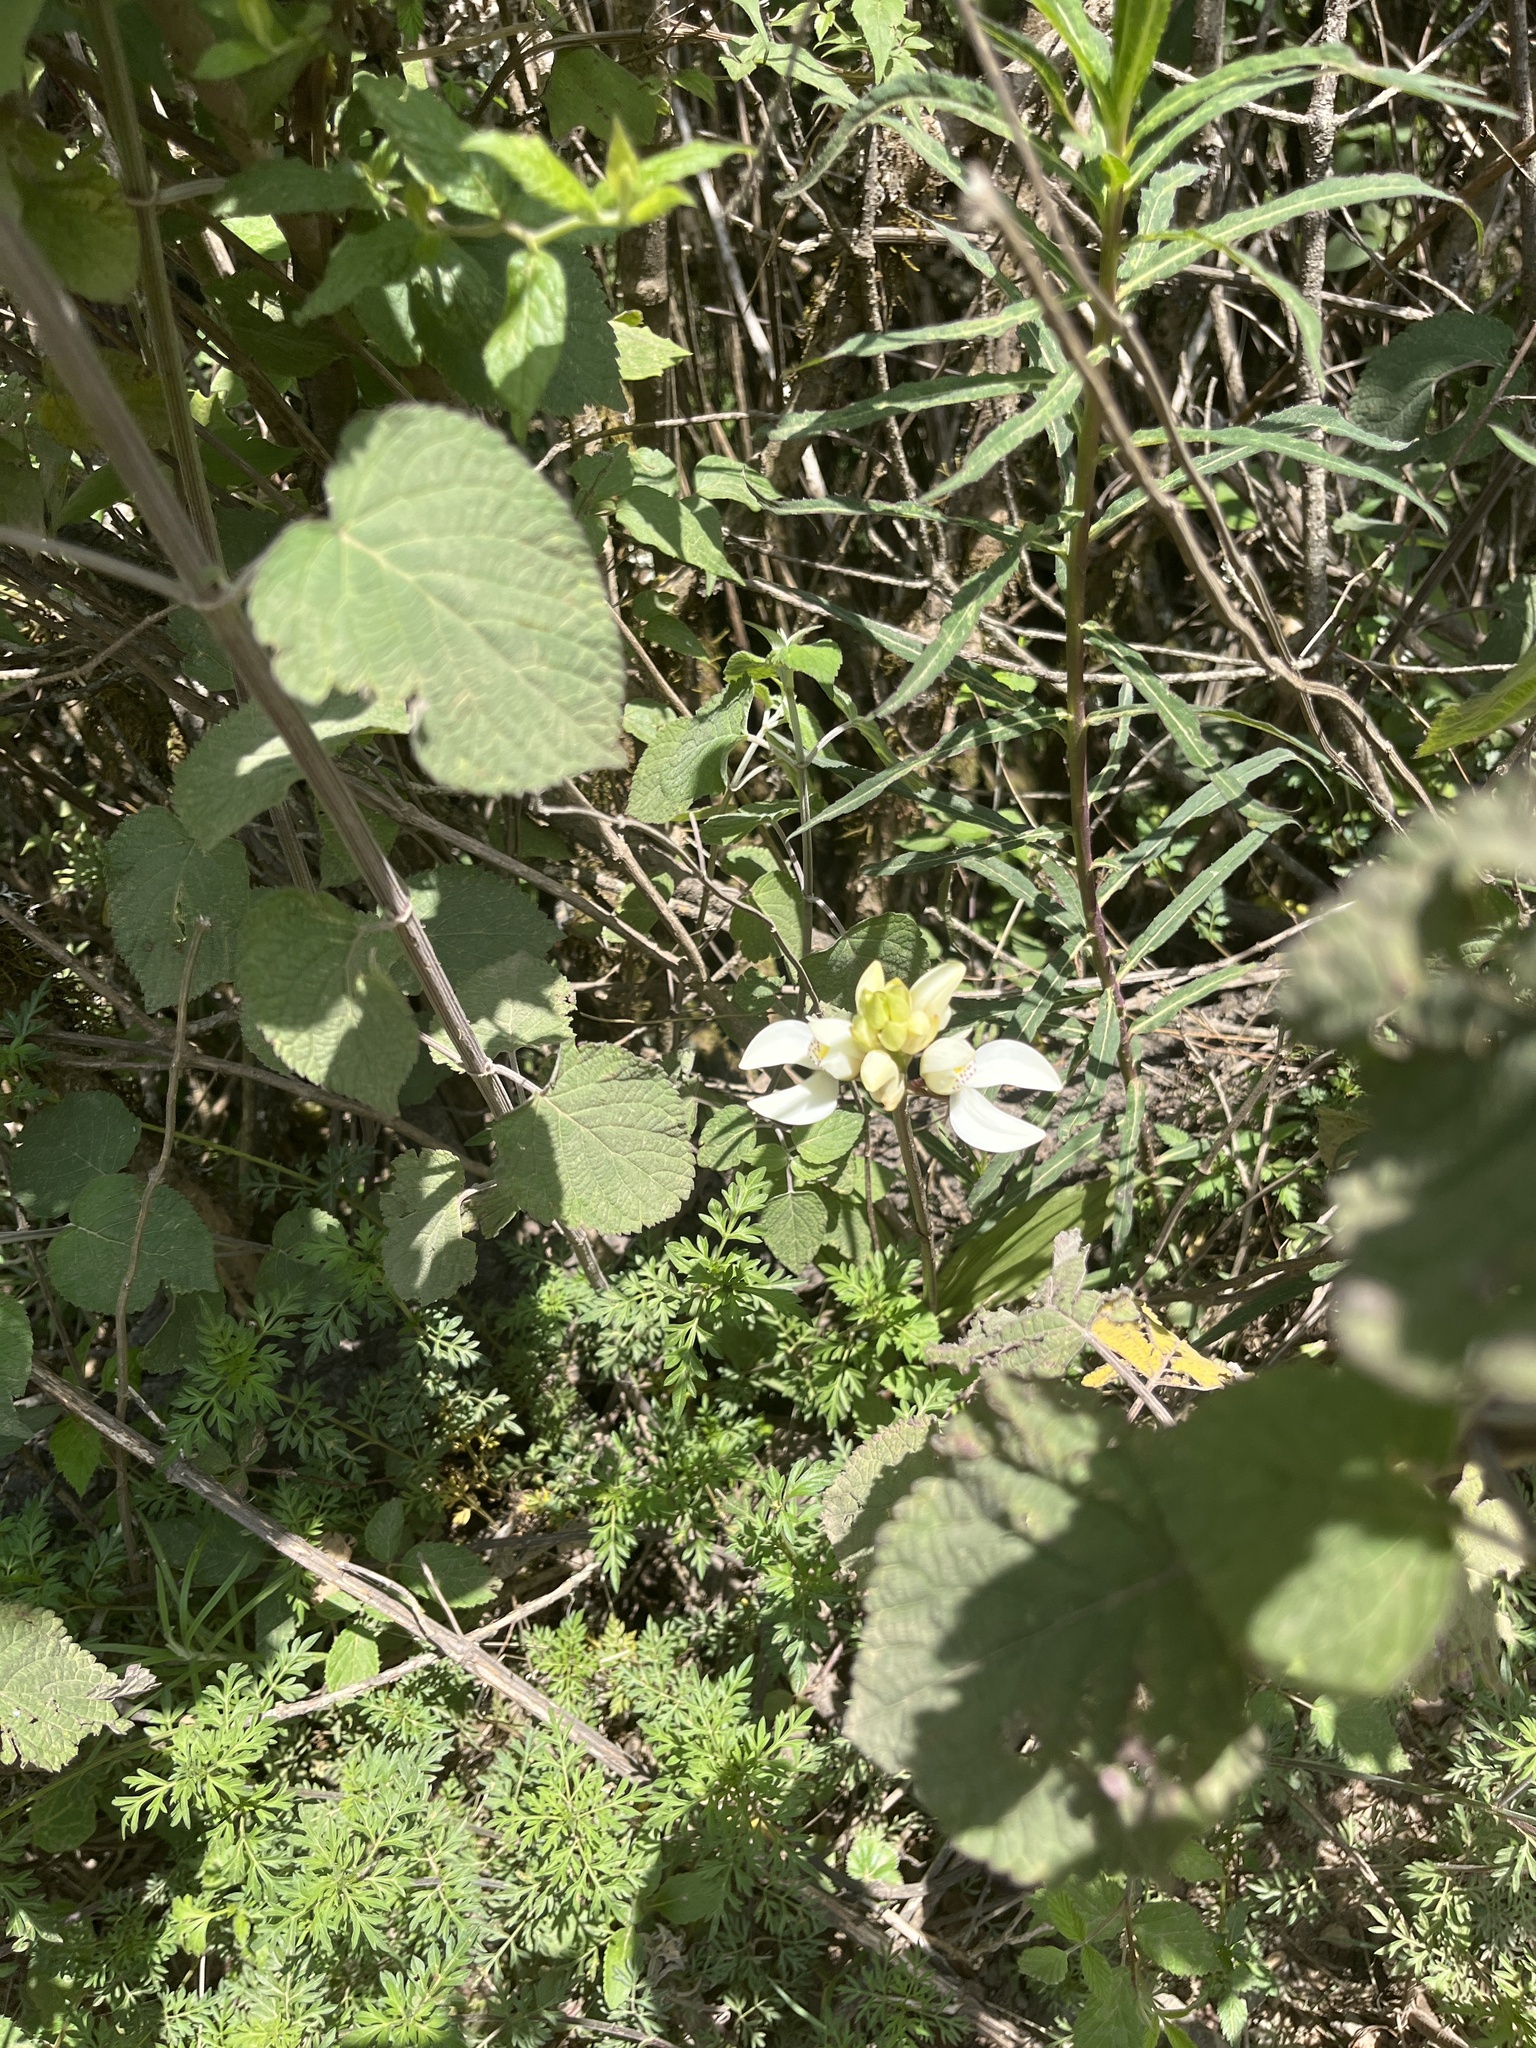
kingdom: Plantae
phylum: Tracheophyta
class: Liliopsida
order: Asparagales
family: Orchidaceae
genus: Govenia
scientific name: Govenia capitata
